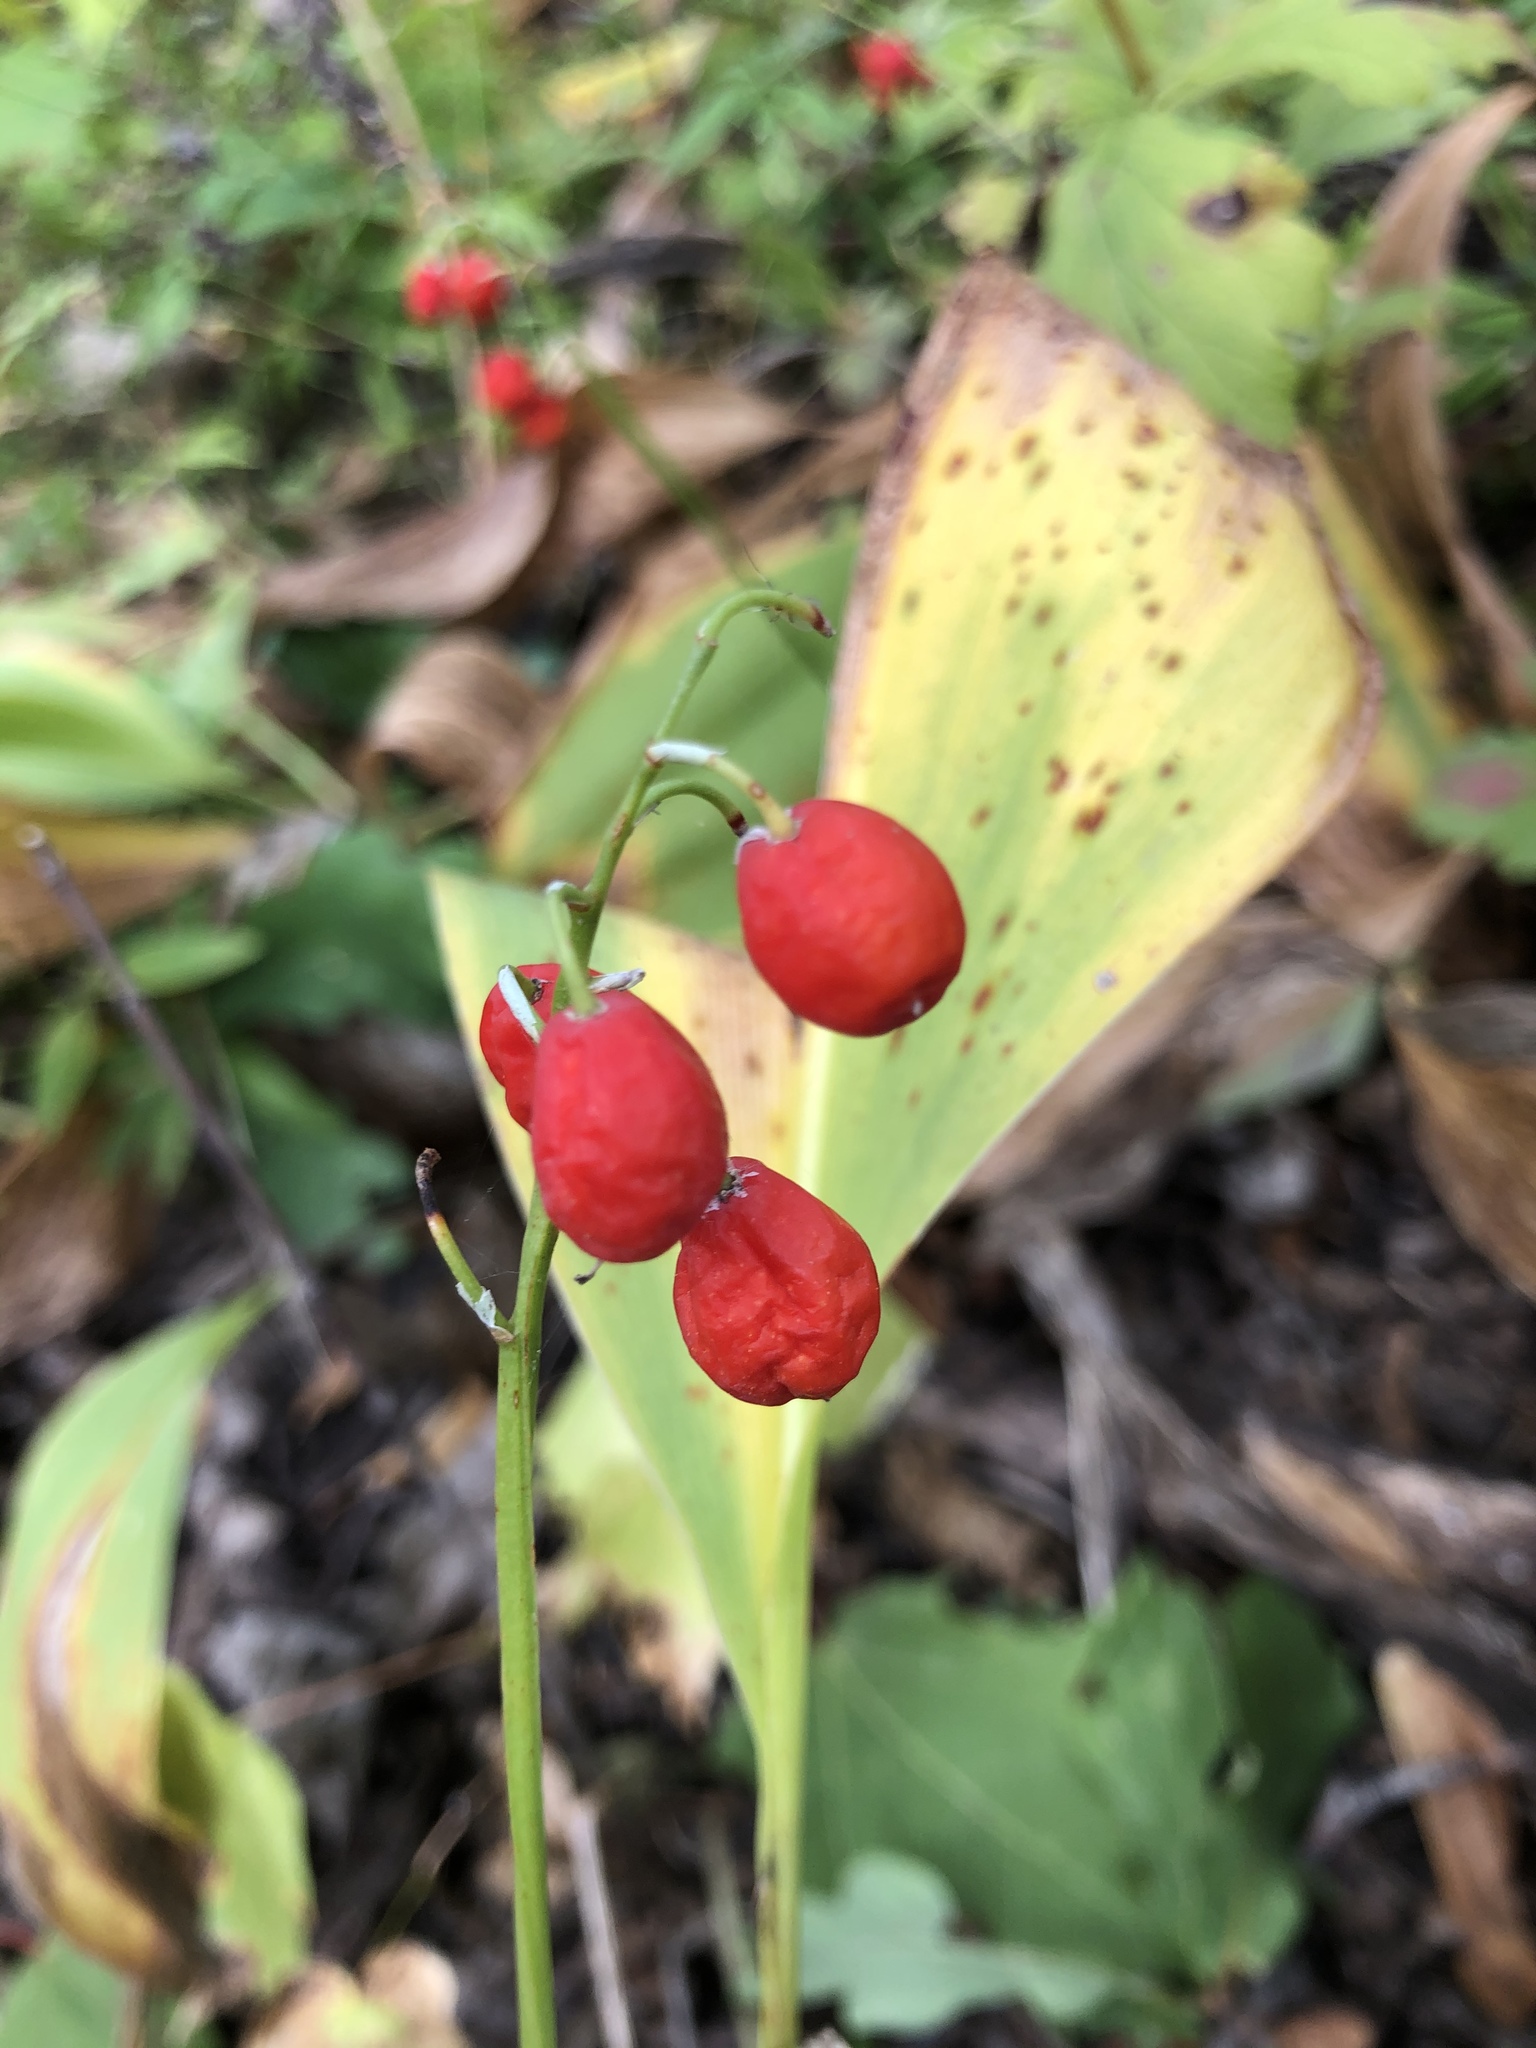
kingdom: Plantae
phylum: Tracheophyta
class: Liliopsida
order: Asparagales
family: Asparagaceae
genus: Convallaria
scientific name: Convallaria majalis
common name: Lily-of-the-valley
